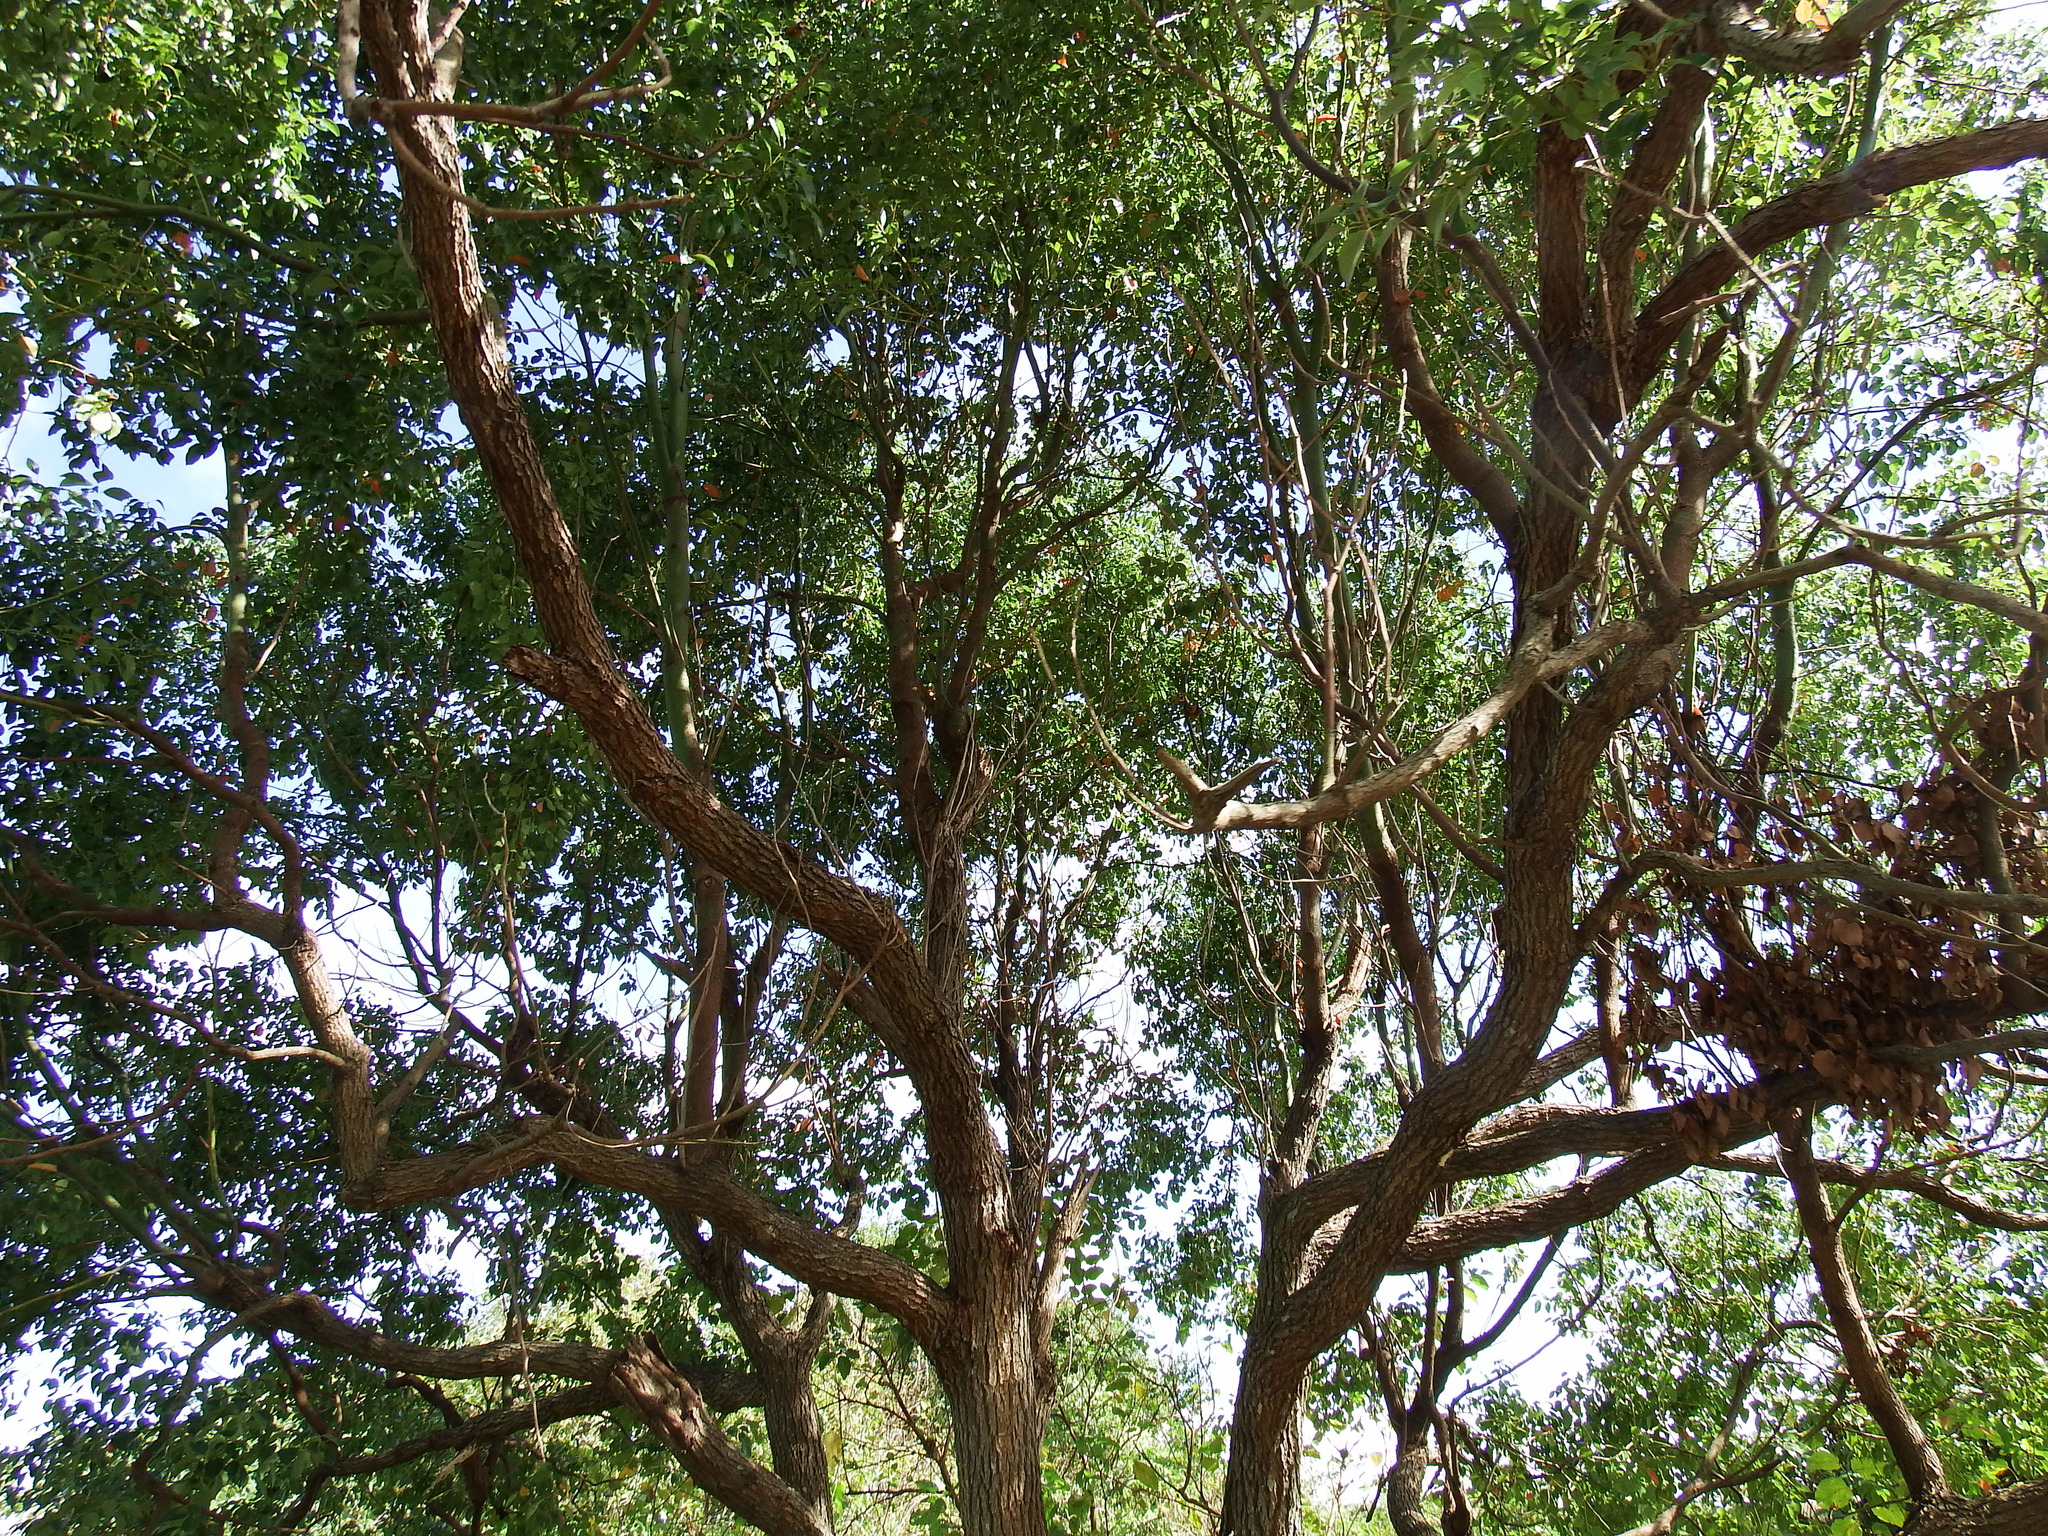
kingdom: Plantae
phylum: Tracheophyta
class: Magnoliopsida
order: Laurales
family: Lauraceae
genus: Cinnamomum
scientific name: Cinnamomum camphora
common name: Camphortree
